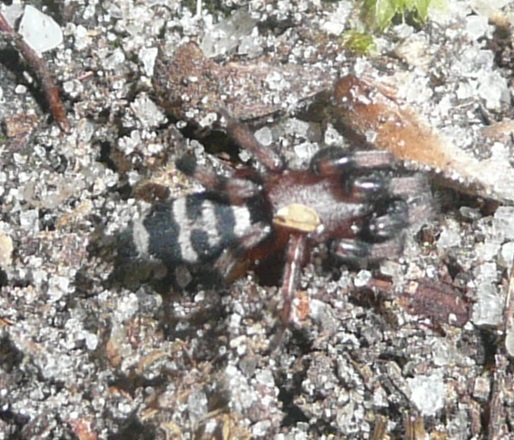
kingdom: Animalia
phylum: Arthropoda
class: Arachnida
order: Araneae
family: Gnaphosidae
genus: Sergiolus
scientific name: Sergiolus capulatus
